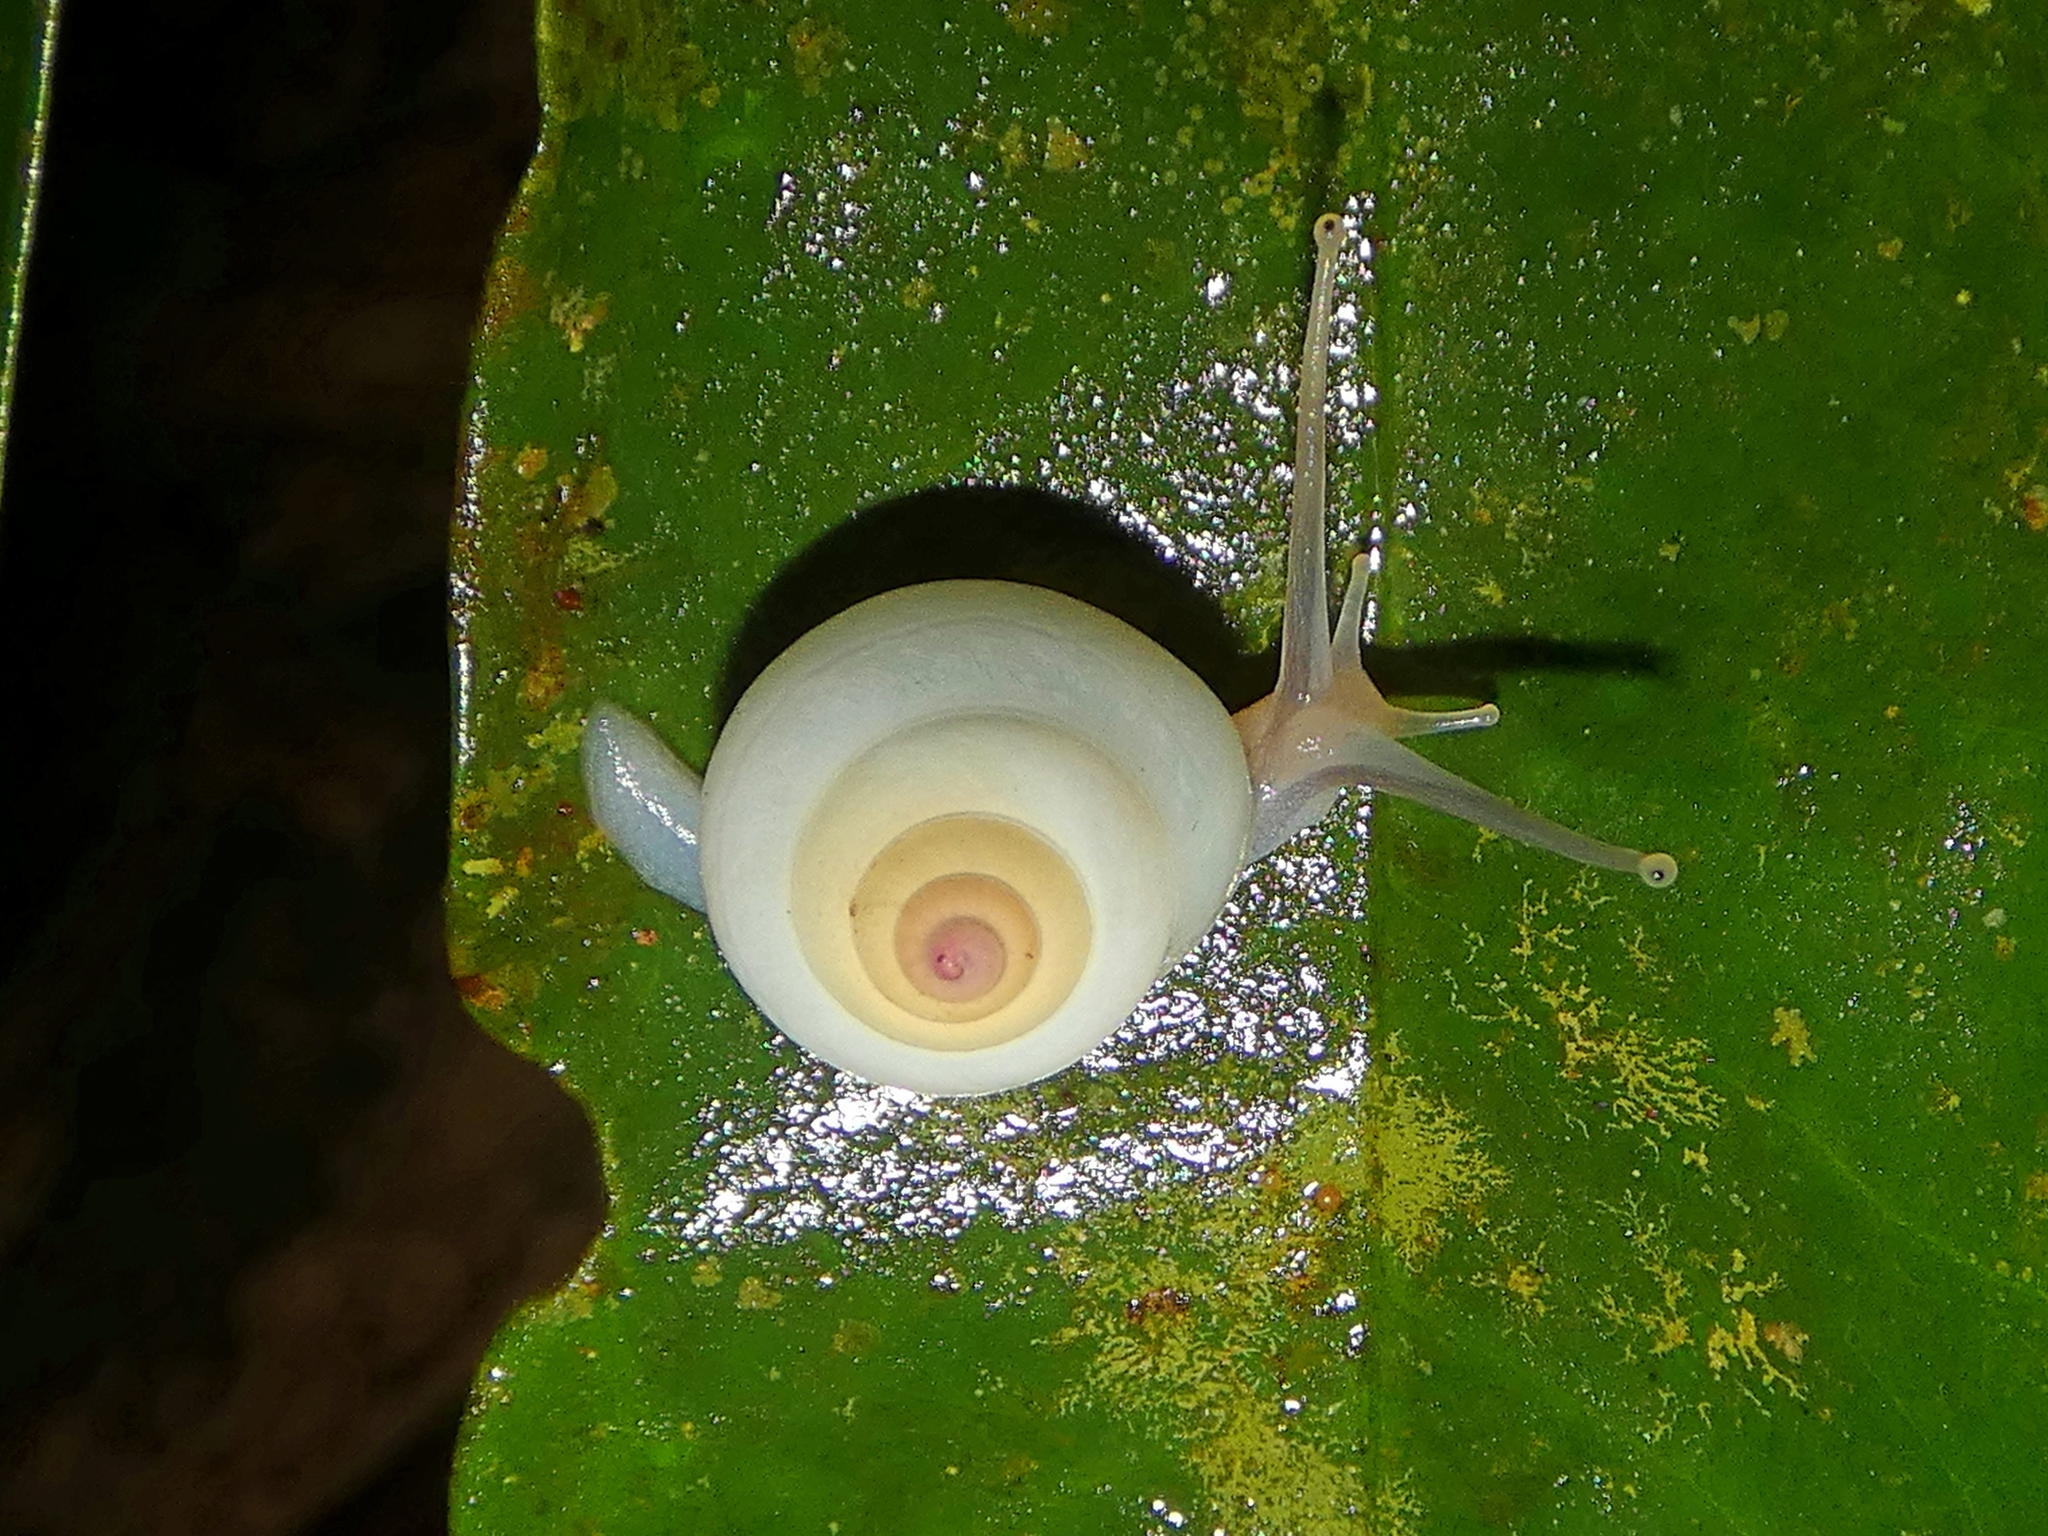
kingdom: Animalia
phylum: Mollusca
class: Gastropoda
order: Stylommatophora
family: Camaenidae
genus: Noctepuna
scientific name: Noctepuna cerea
